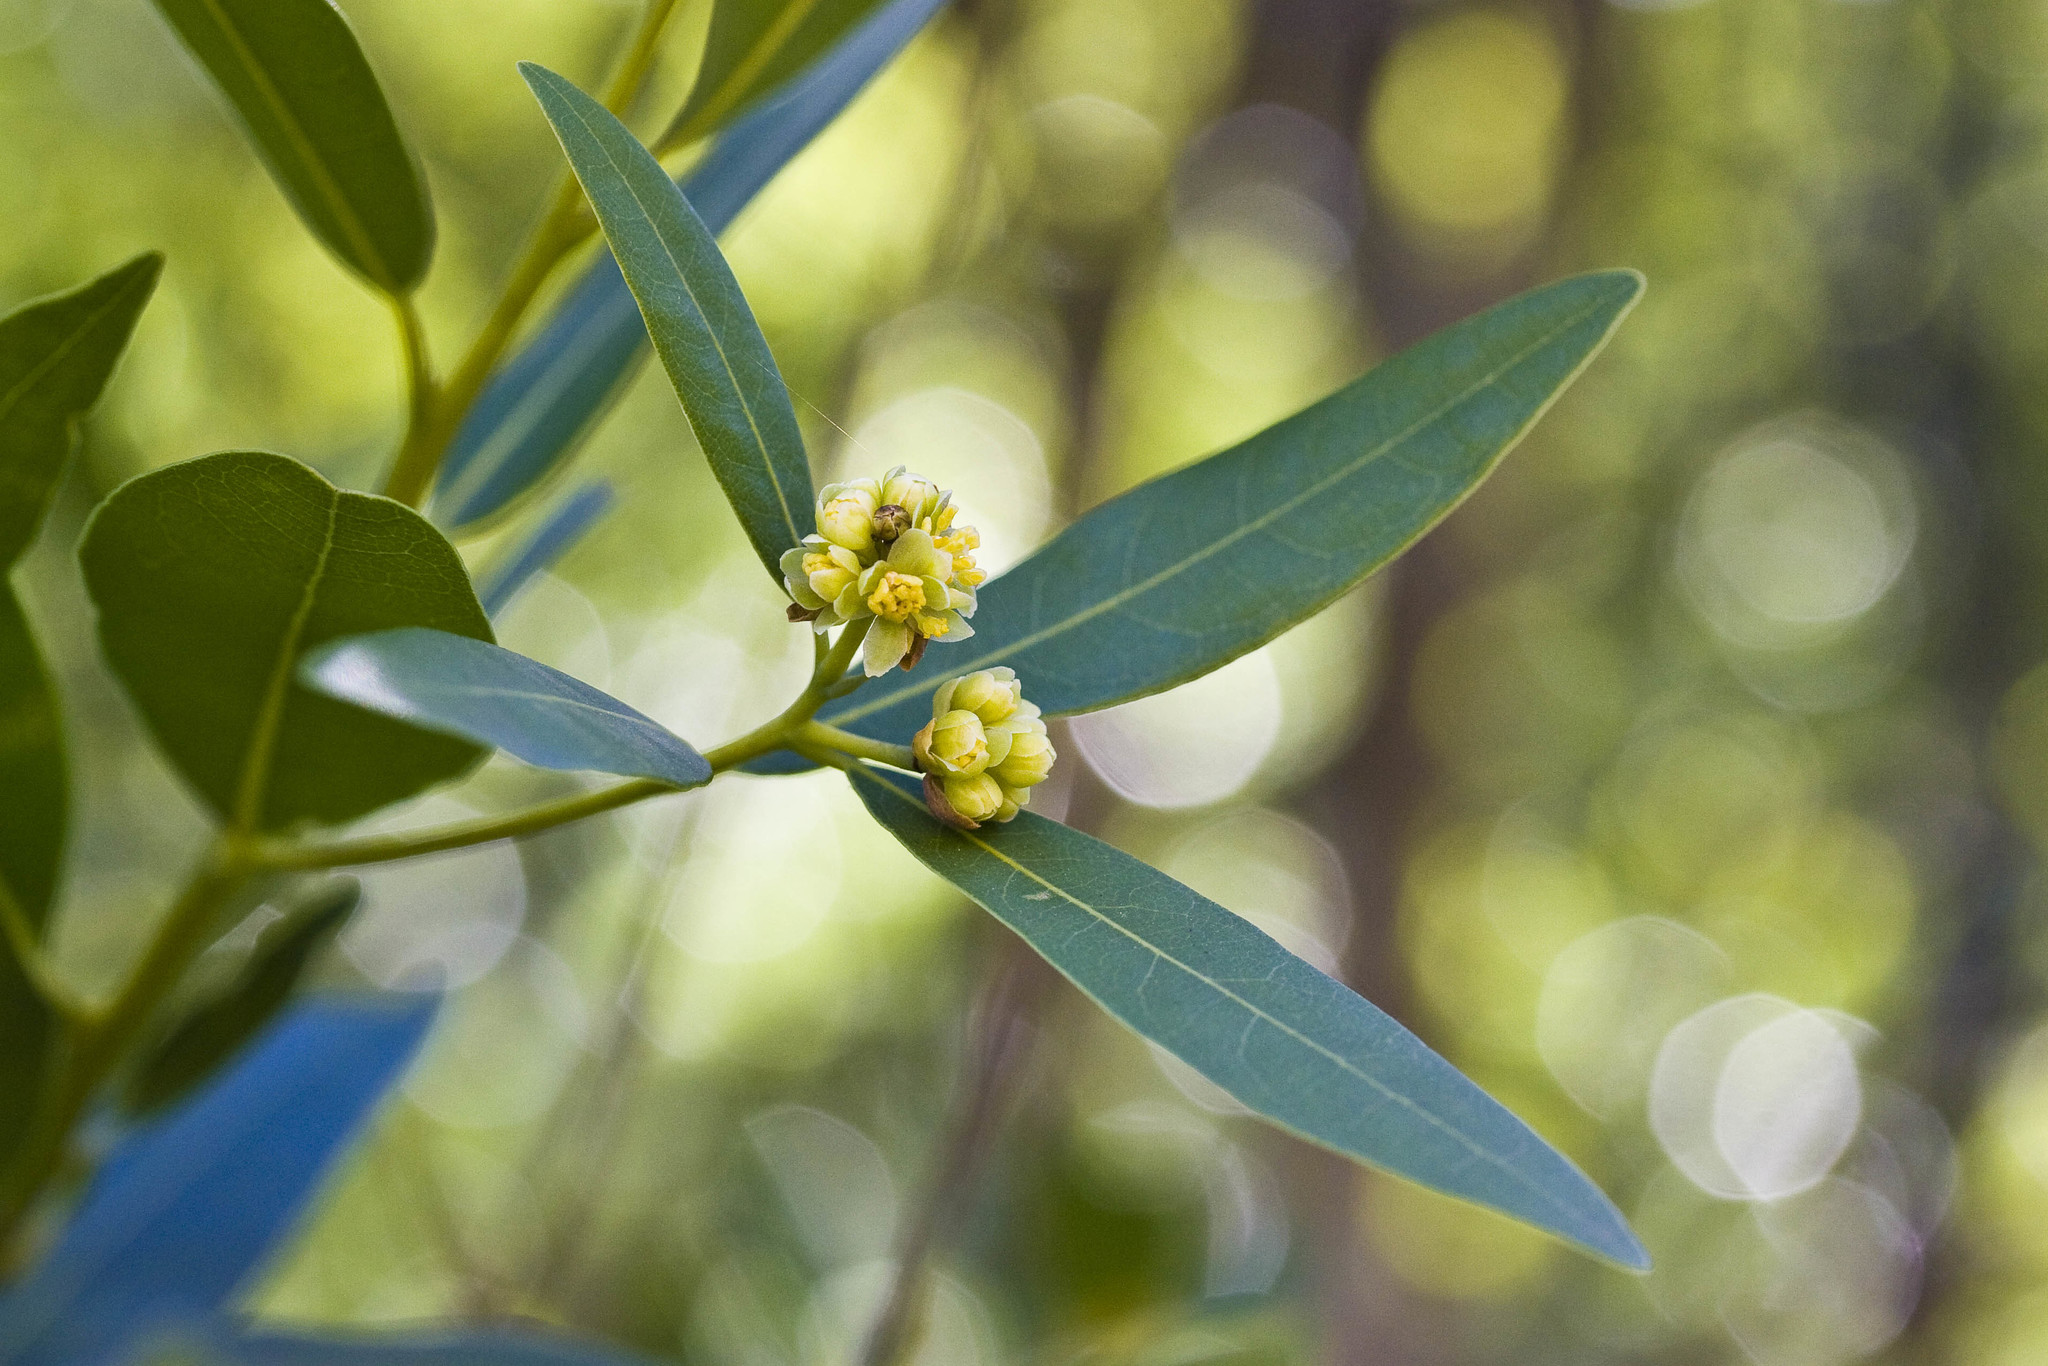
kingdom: Plantae
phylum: Tracheophyta
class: Magnoliopsida
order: Laurales
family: Lauraceae
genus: Umbellularia
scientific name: Umbellularia californica
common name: California bay
